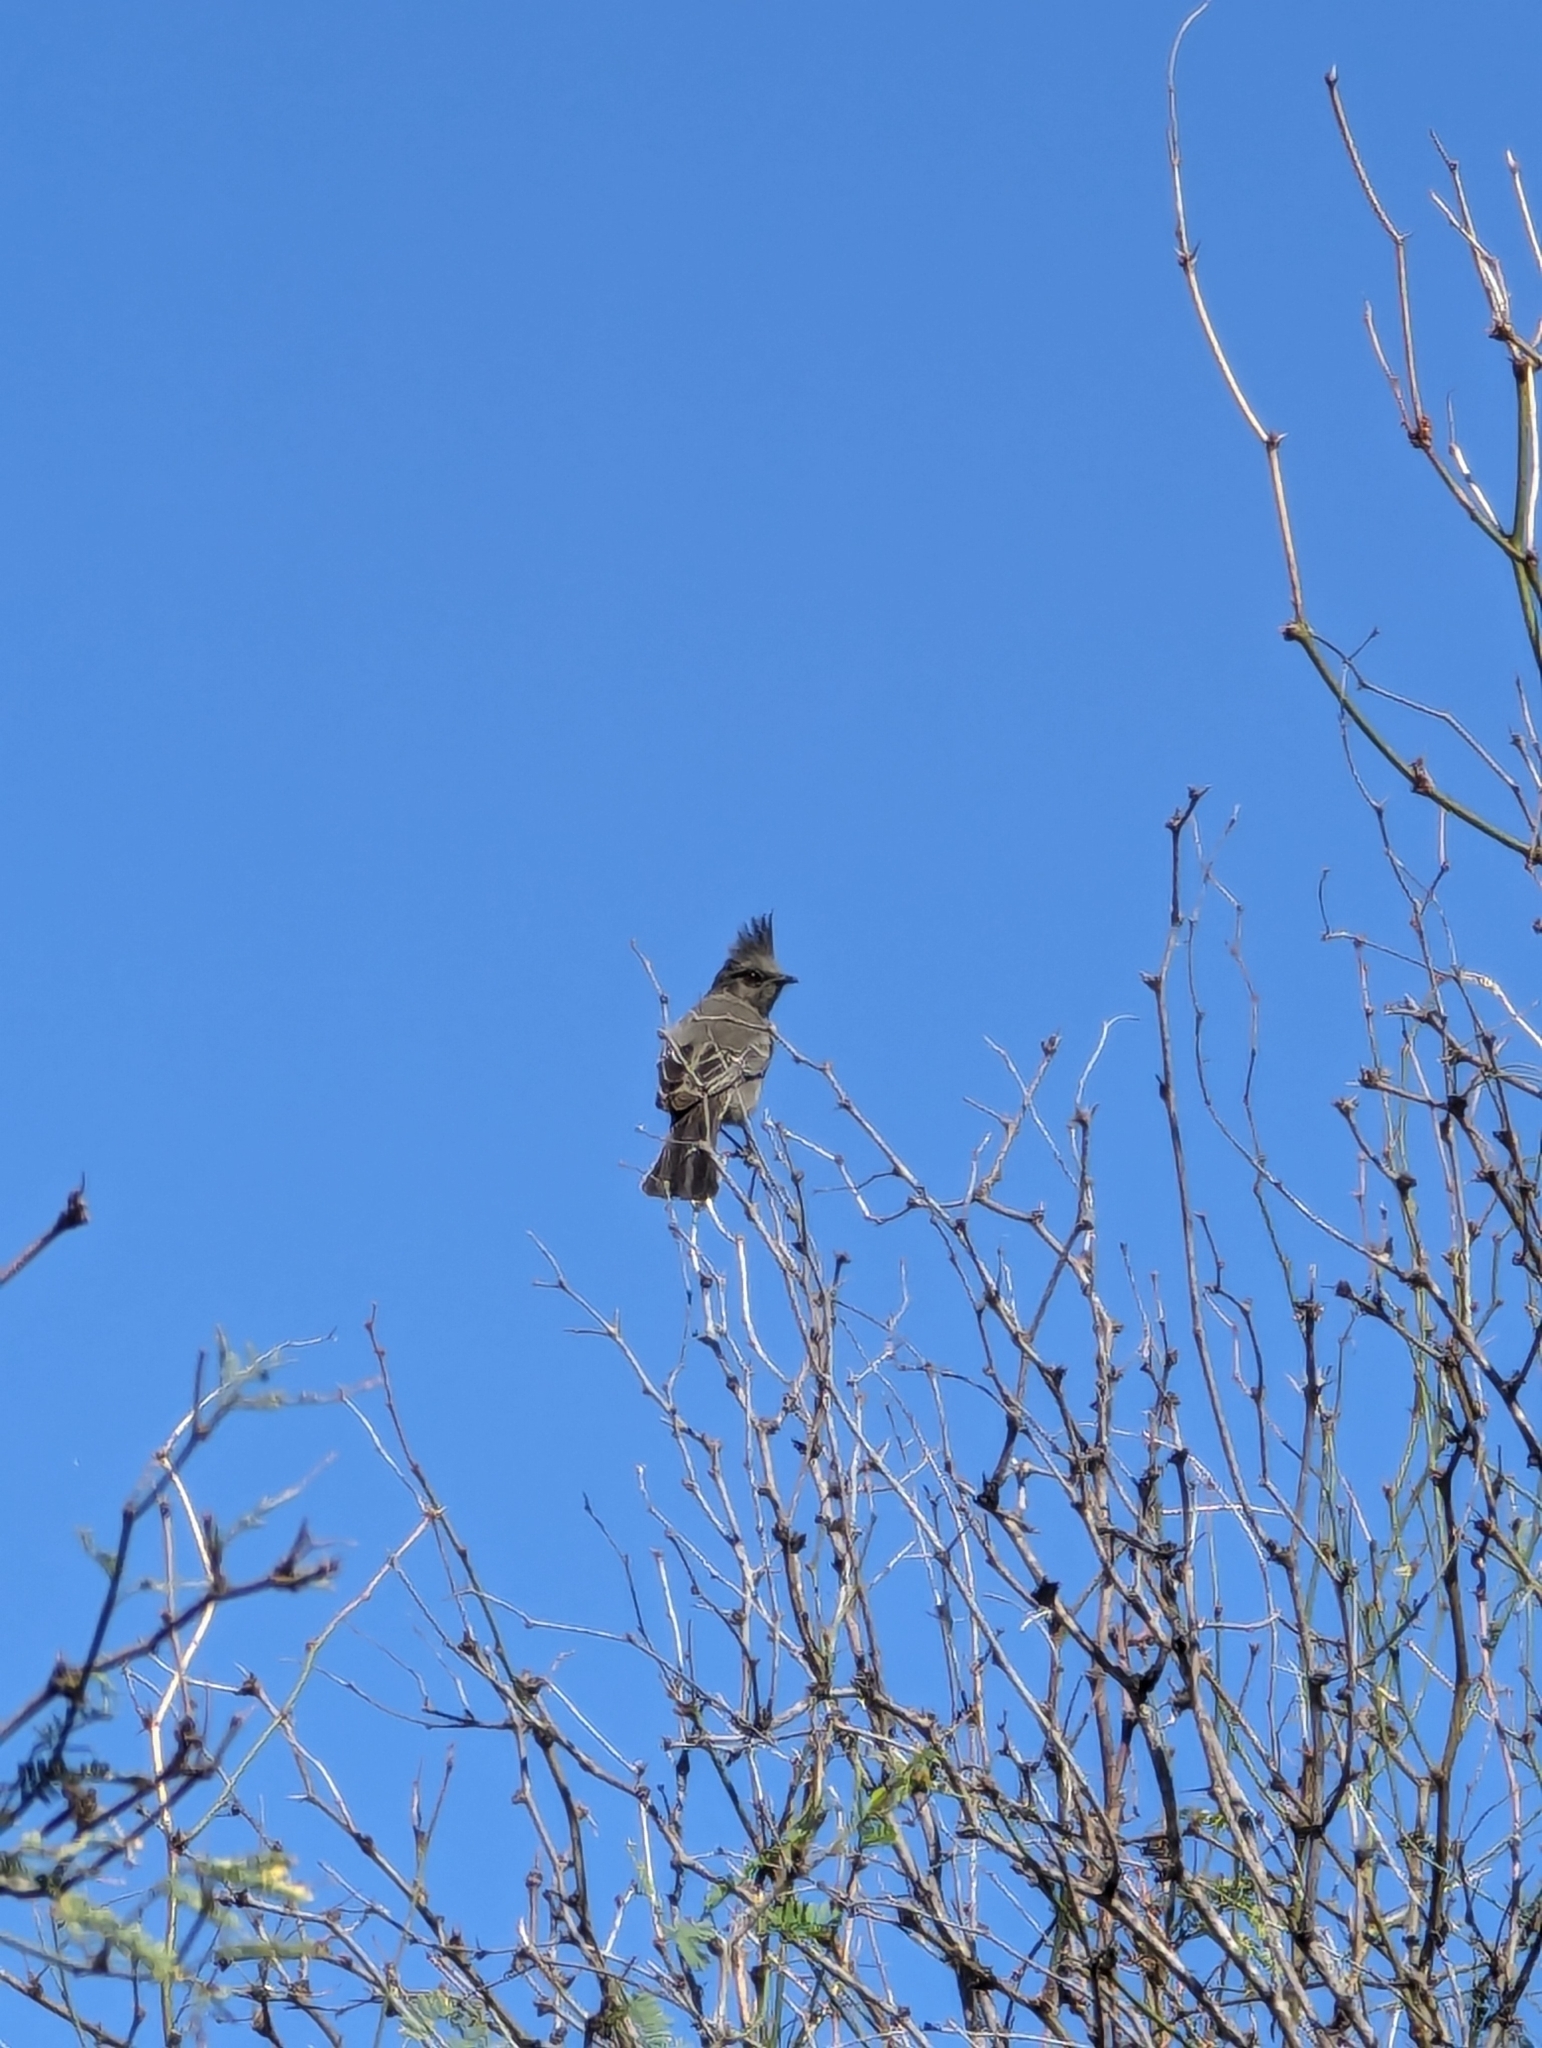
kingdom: Animalia
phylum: Chordata
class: Aves
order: Passeriformes
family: Ptilogonatidae
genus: Phainopepla
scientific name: Phainopepla nitens
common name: Phainopepla
